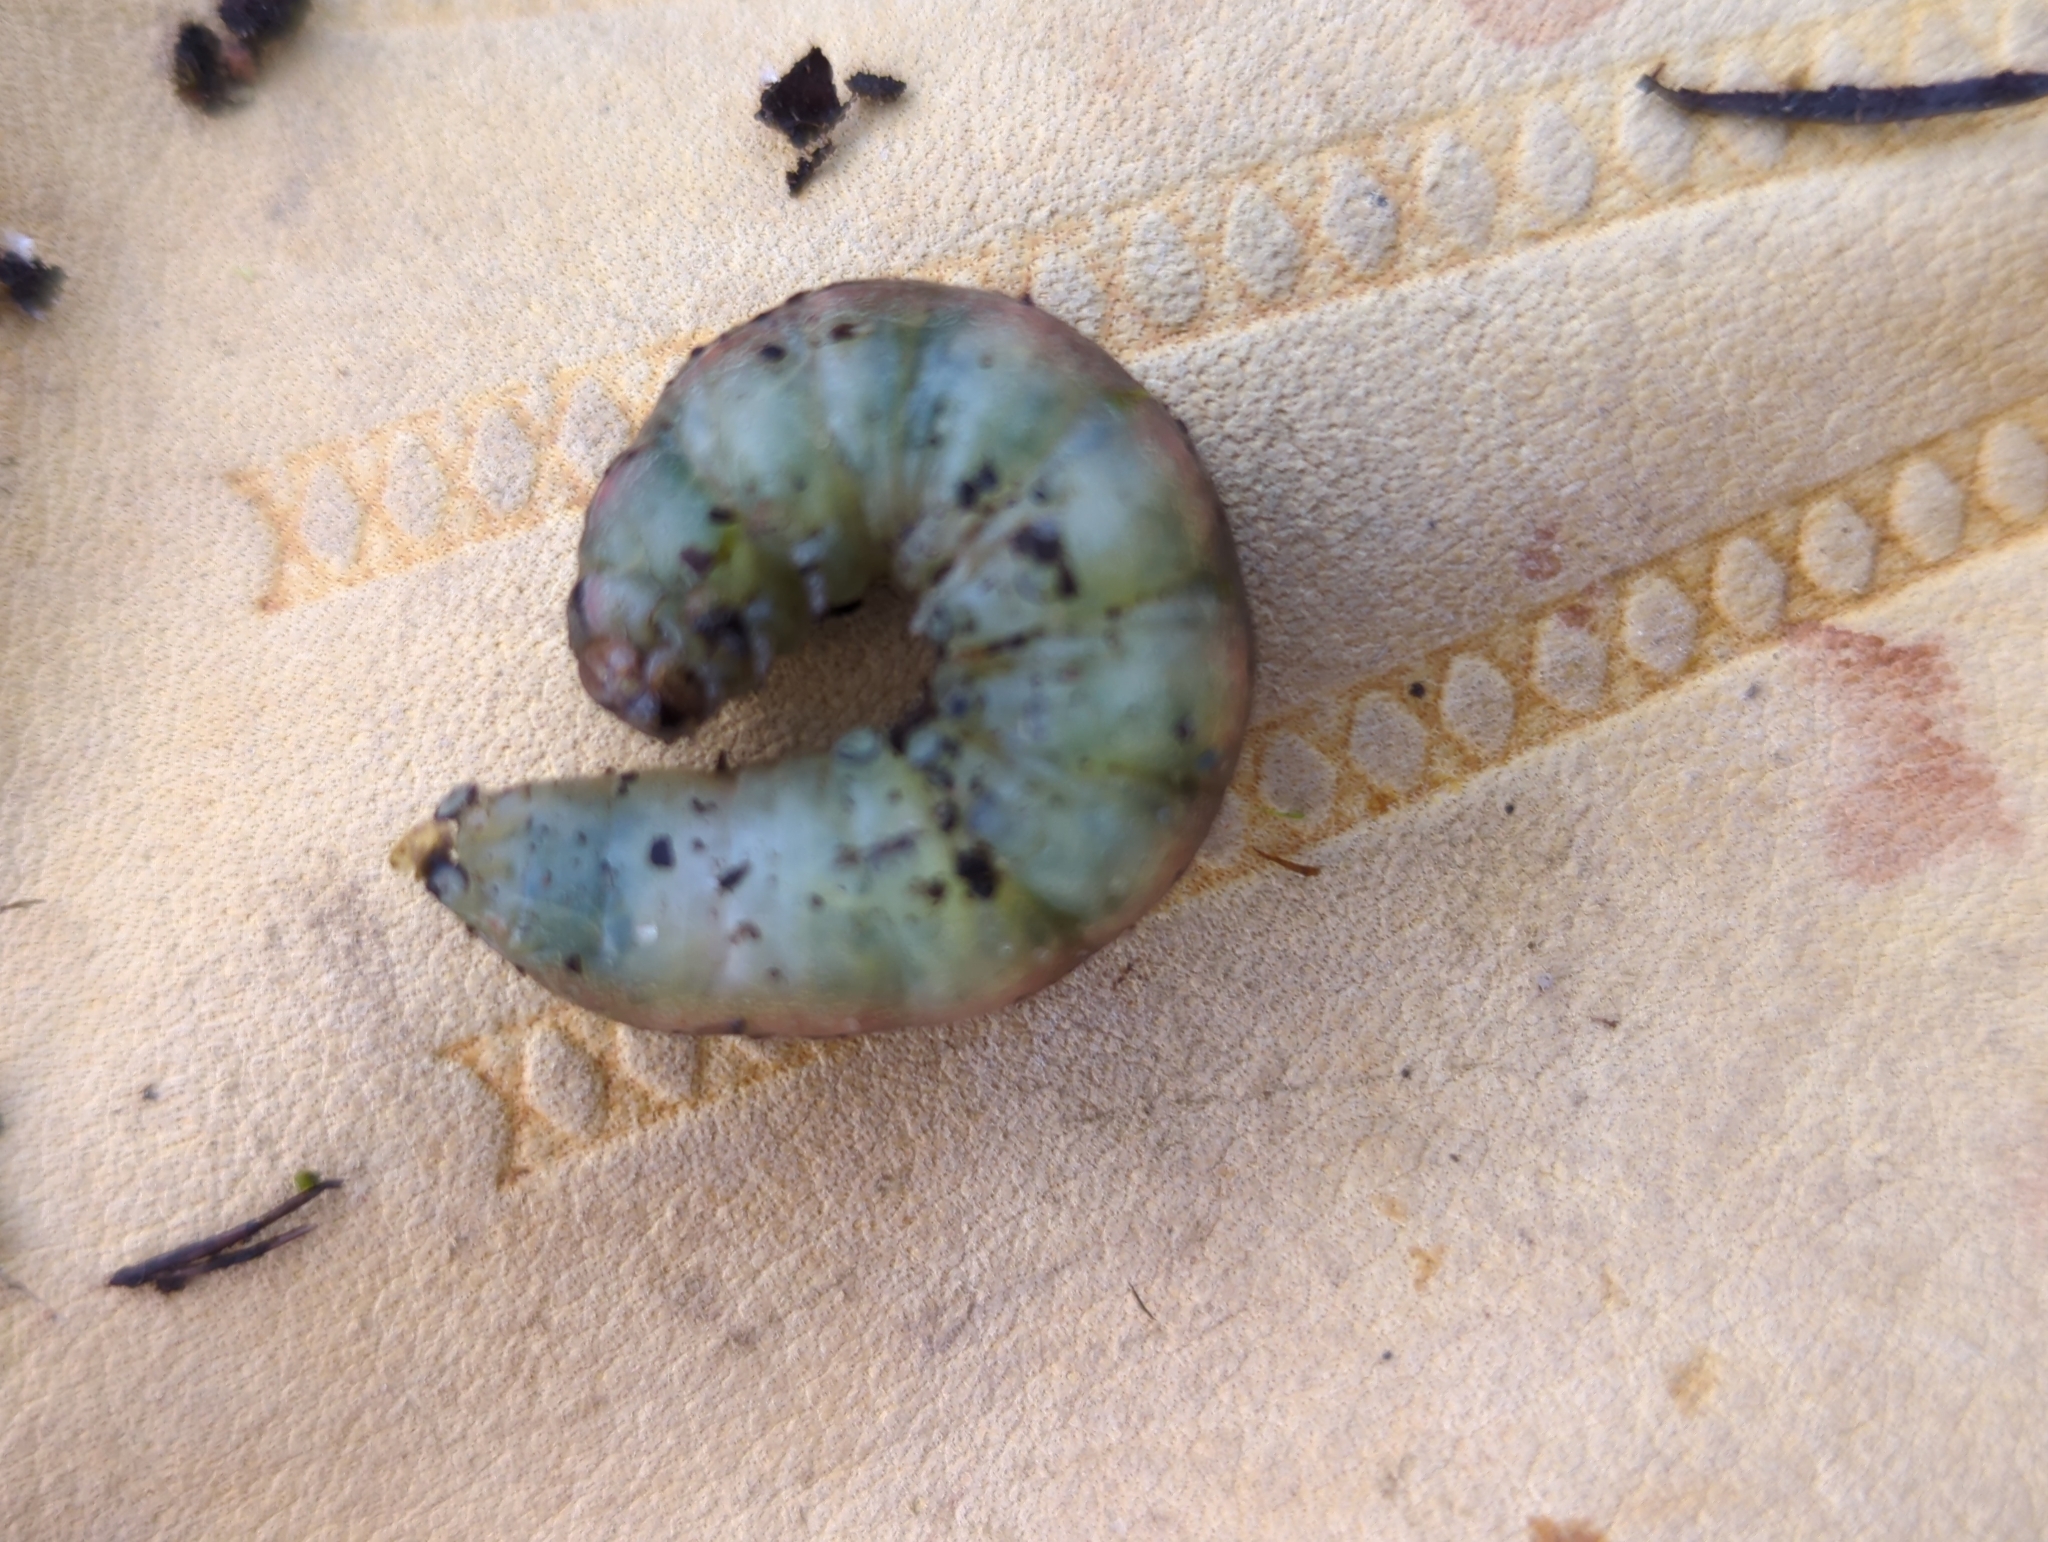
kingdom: Animalia
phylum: Arthropoda
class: Insecta
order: Lepidoptera
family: Noctuidae
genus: Noctua
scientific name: Noctua pronuba
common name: Large yellow underwing
